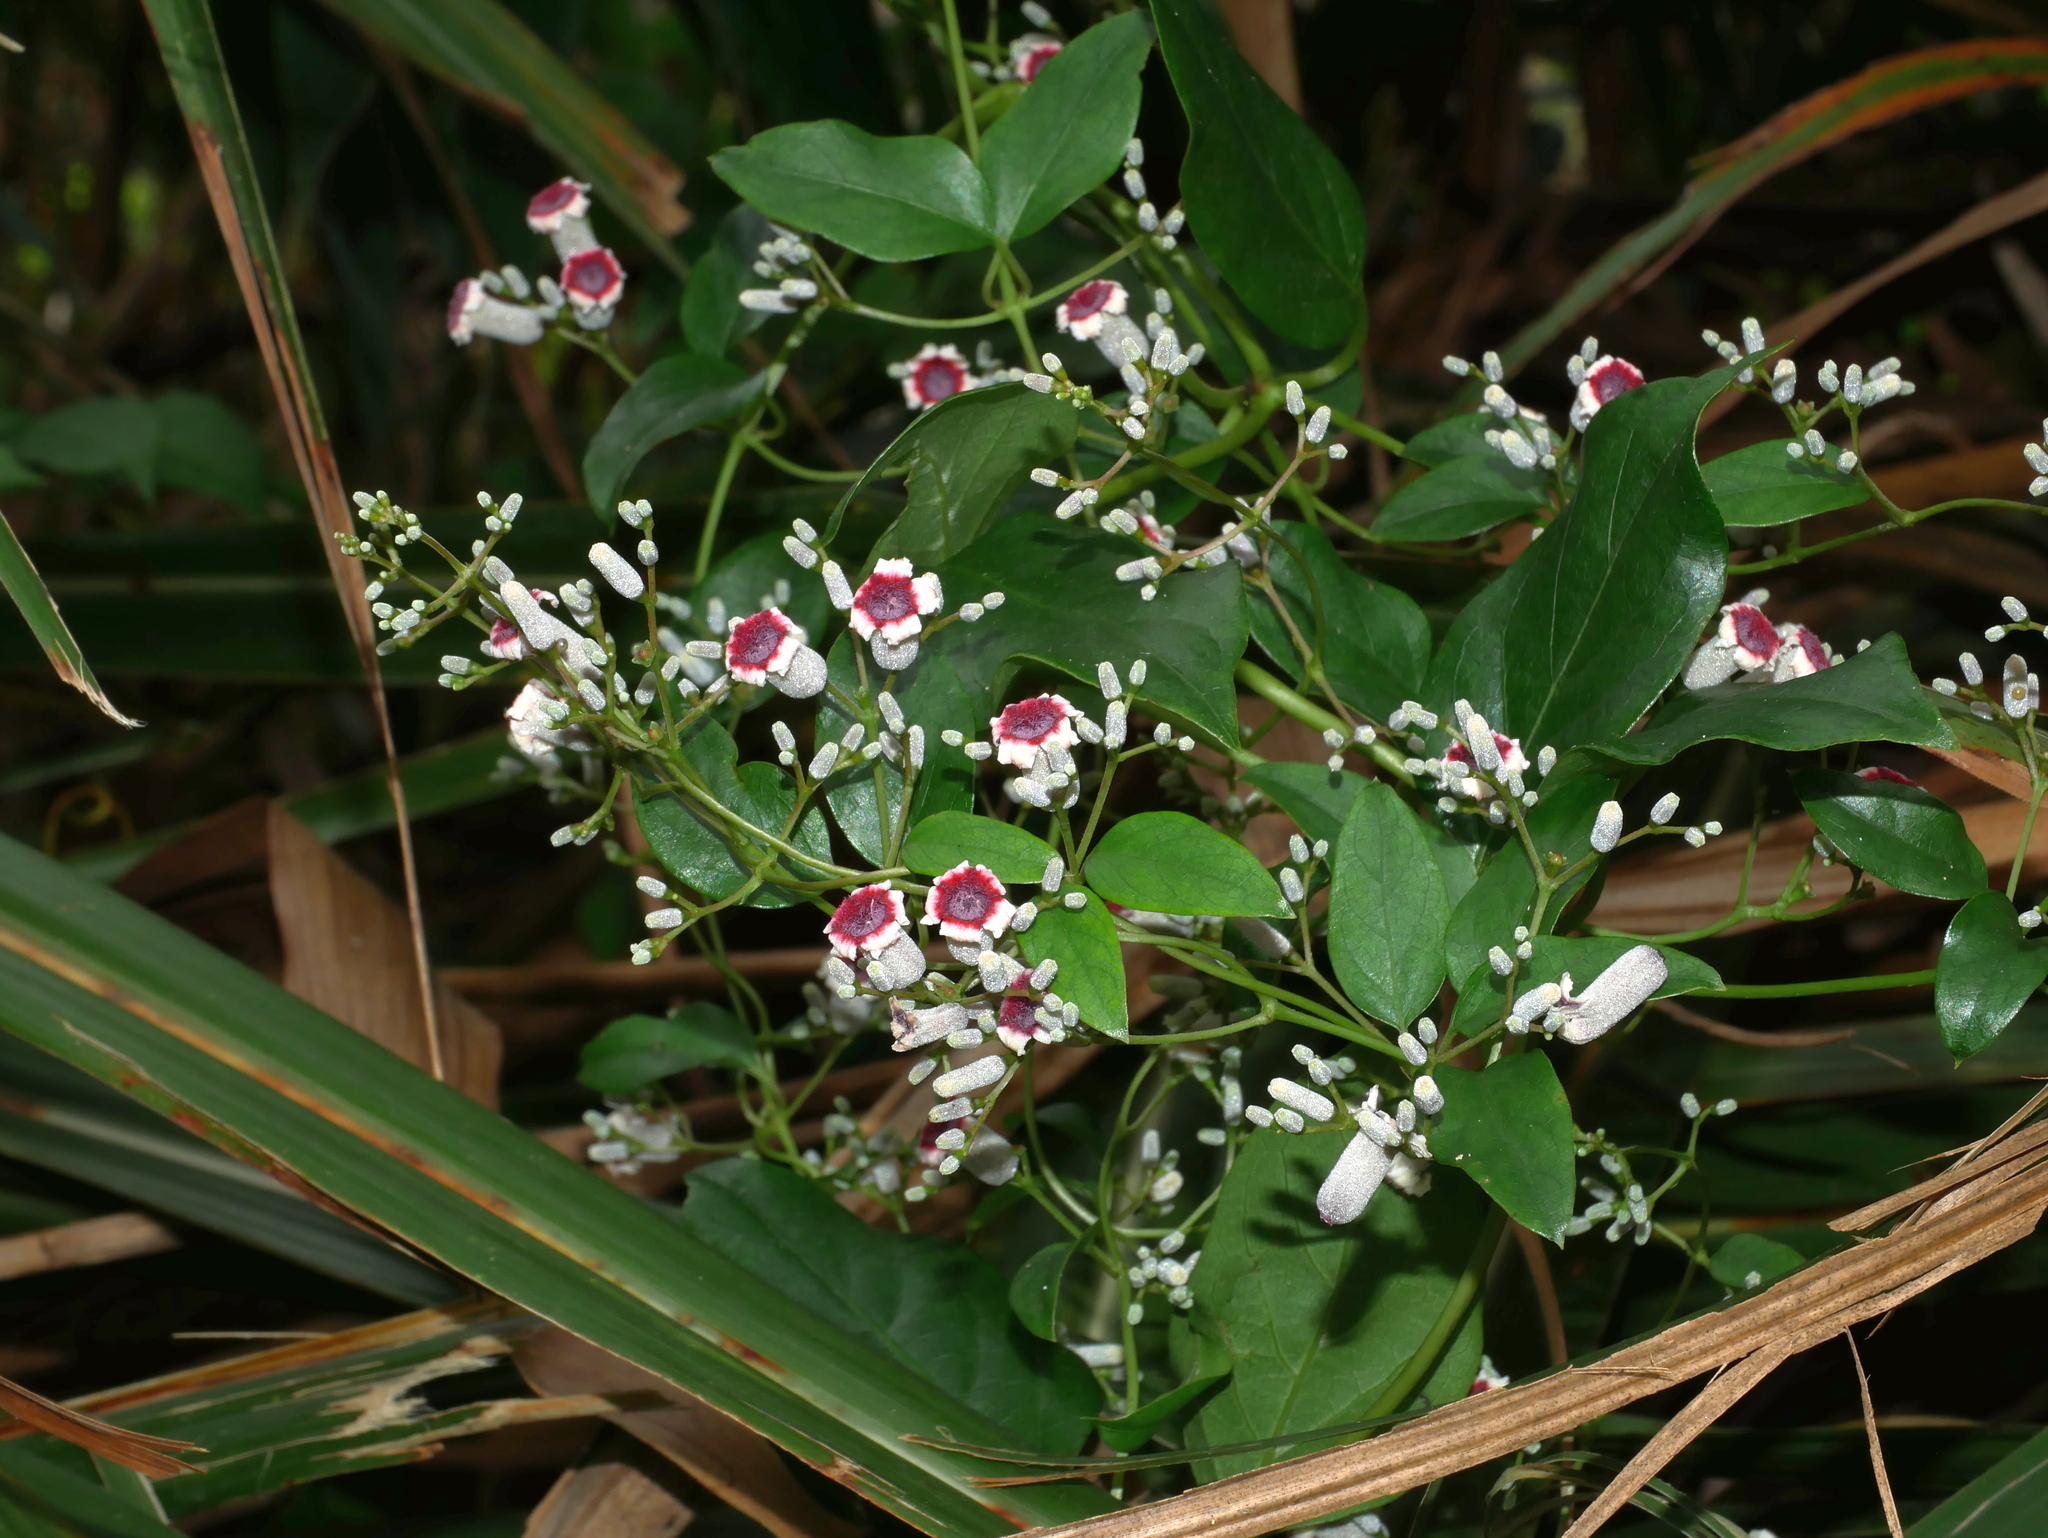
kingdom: Plantae
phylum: Tracheophyta
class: Magnoliopsida
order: Gentianales
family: Rubiaceae
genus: Paederia
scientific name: Paederia foetida
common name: Stinkvine
